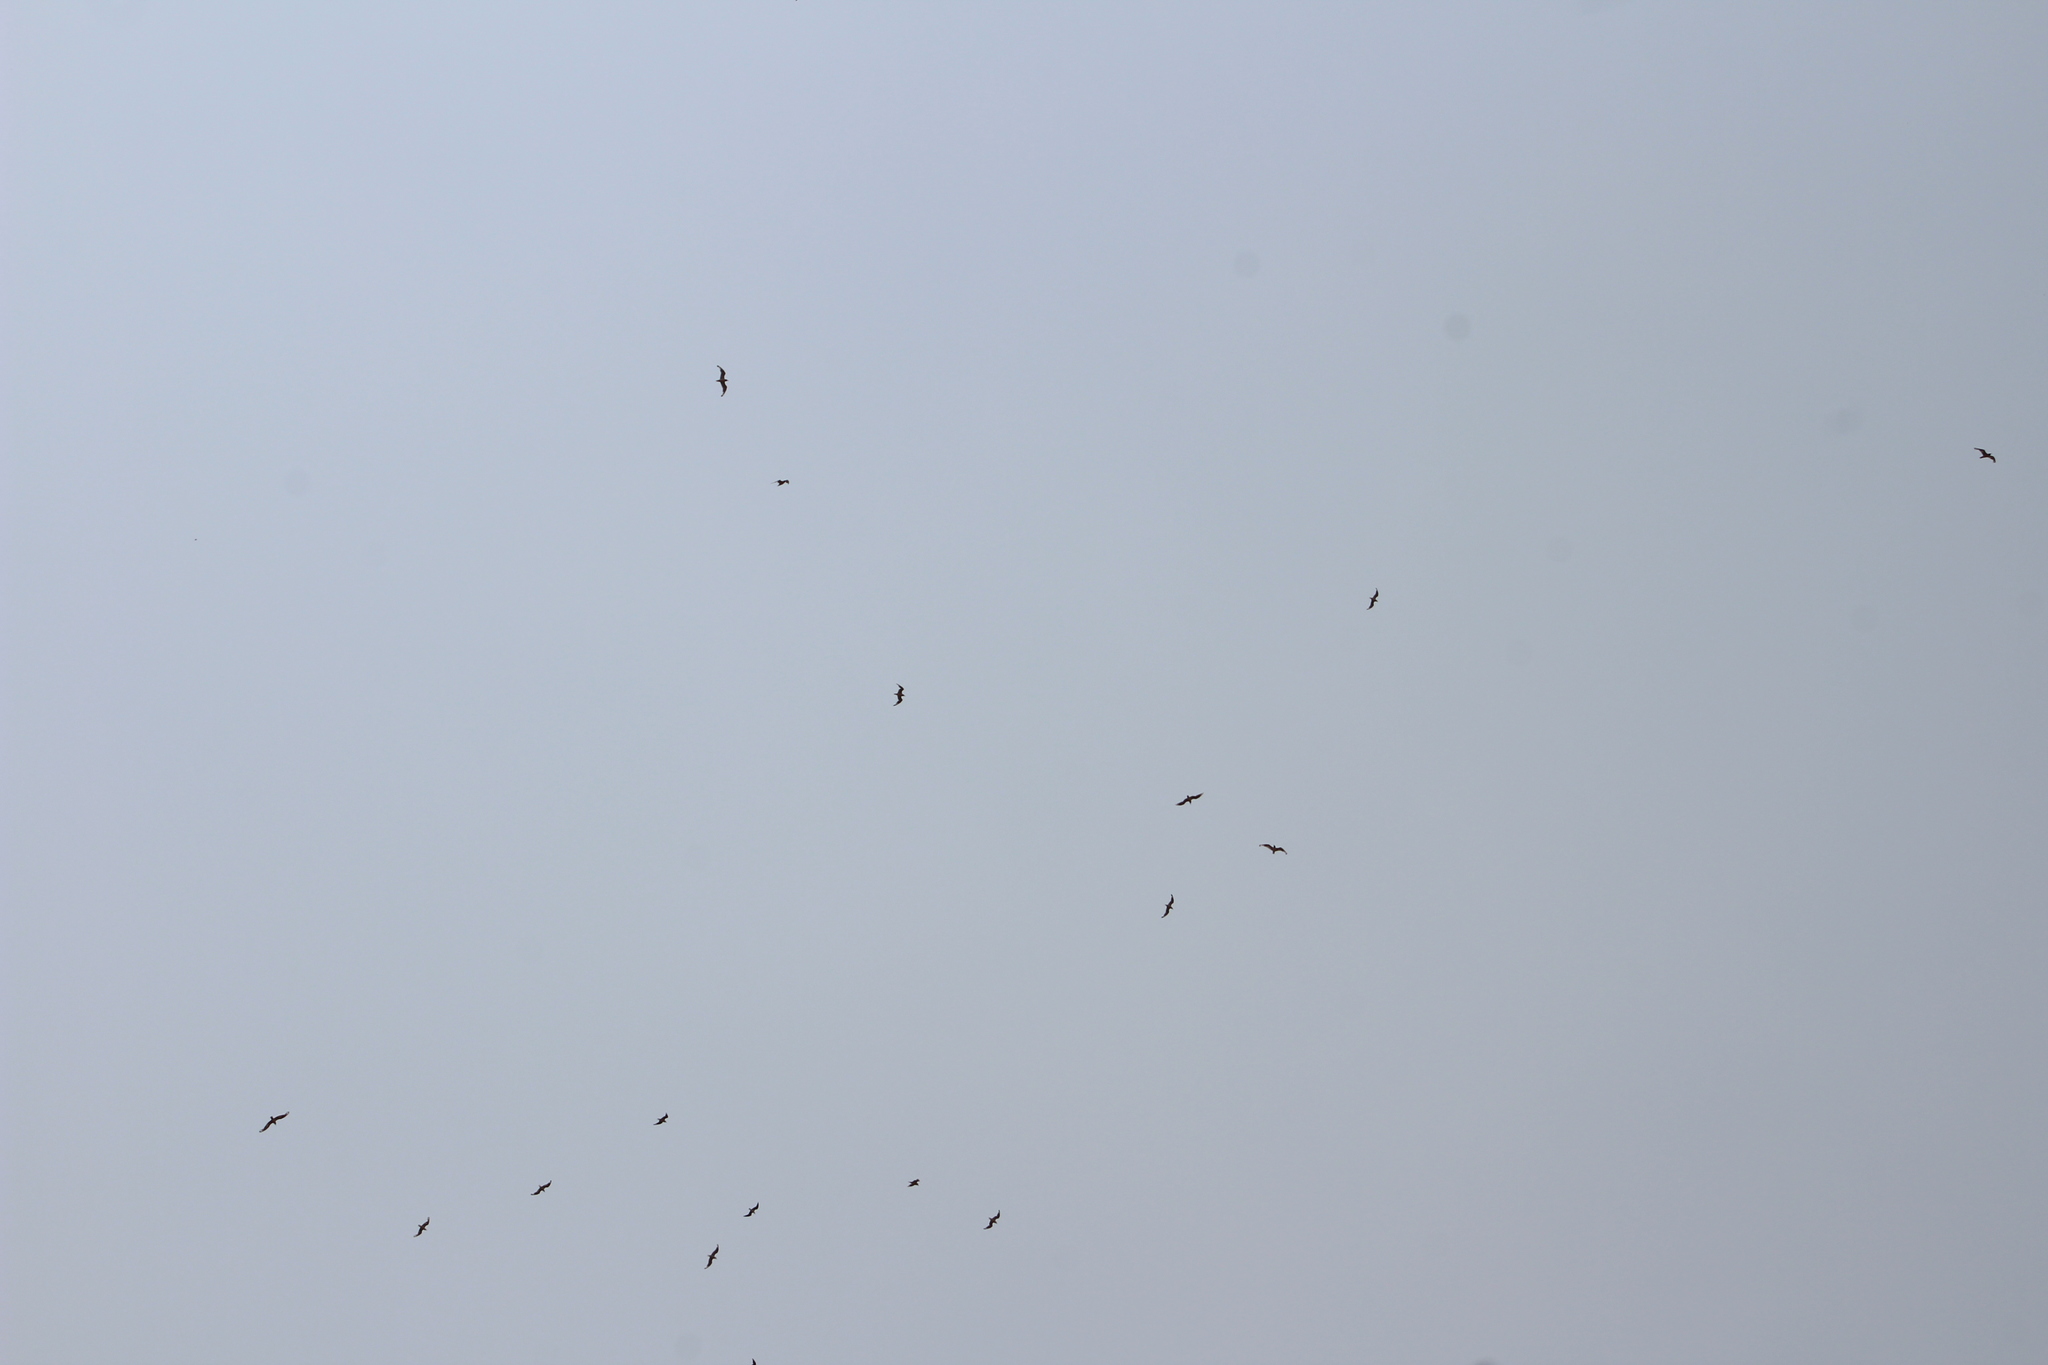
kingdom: Animalia
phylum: Chordata
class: Aves
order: Charadriiformes
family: Laridae
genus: Leucophaeus
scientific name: Leucophaeus pipixcan
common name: Franklin's gull
